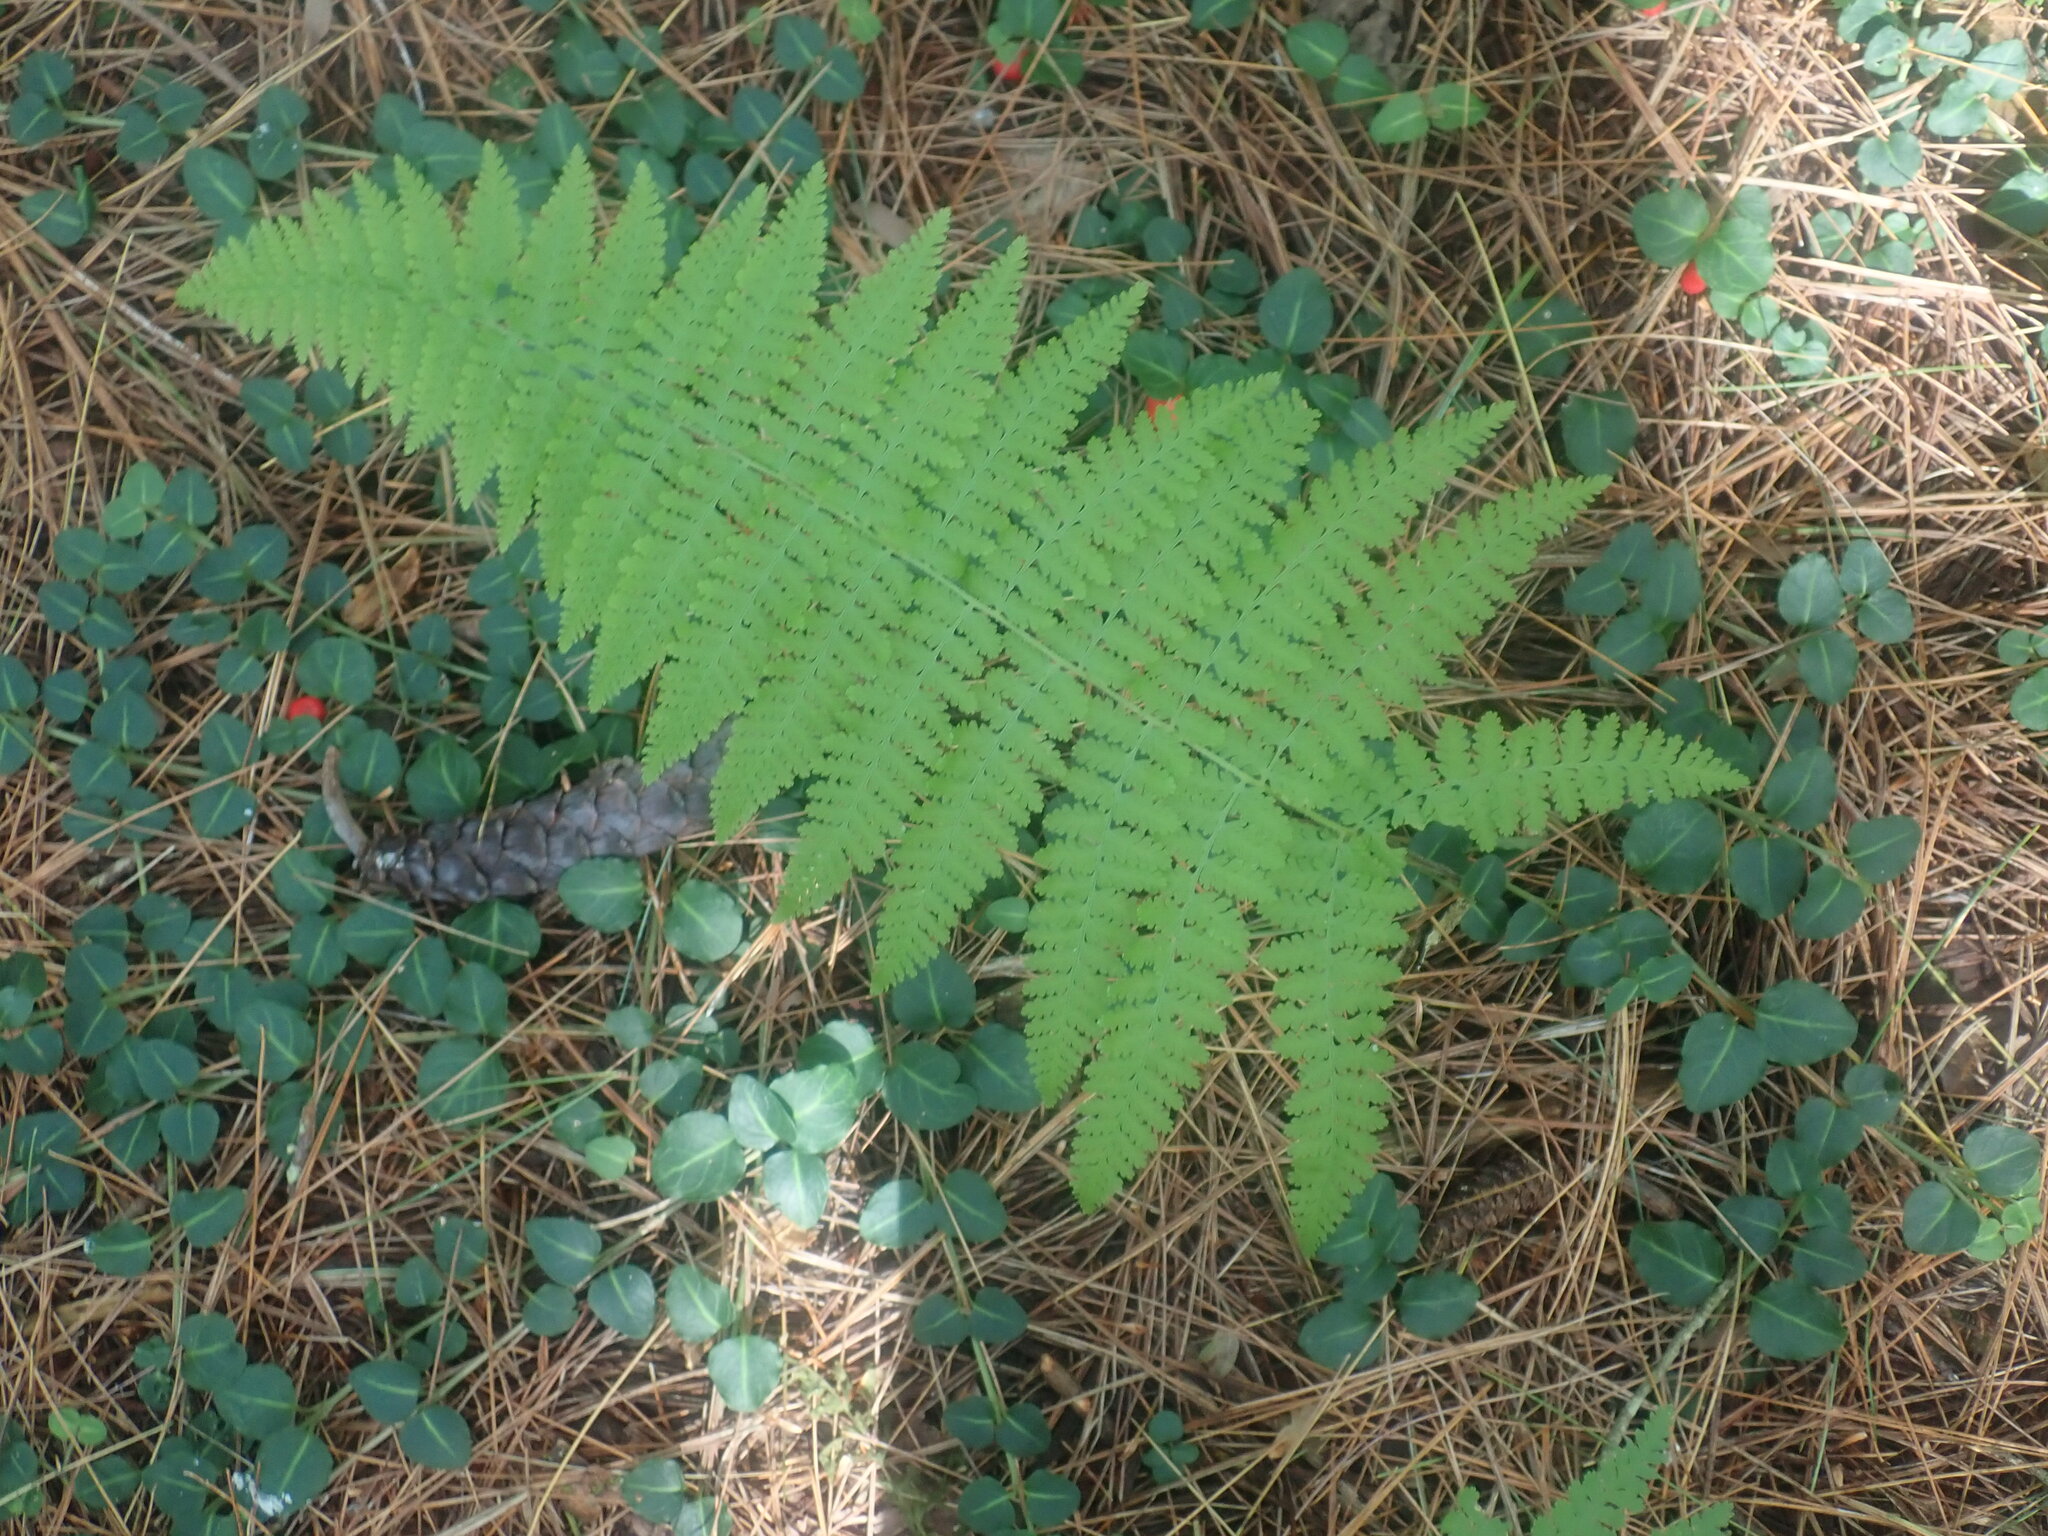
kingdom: Plantae
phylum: Tracheophyta
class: Polypodiopsida
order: Polypodiales
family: Dennstaedtiaceae
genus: Sitobolium
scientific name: Sitobolium punctilobum
